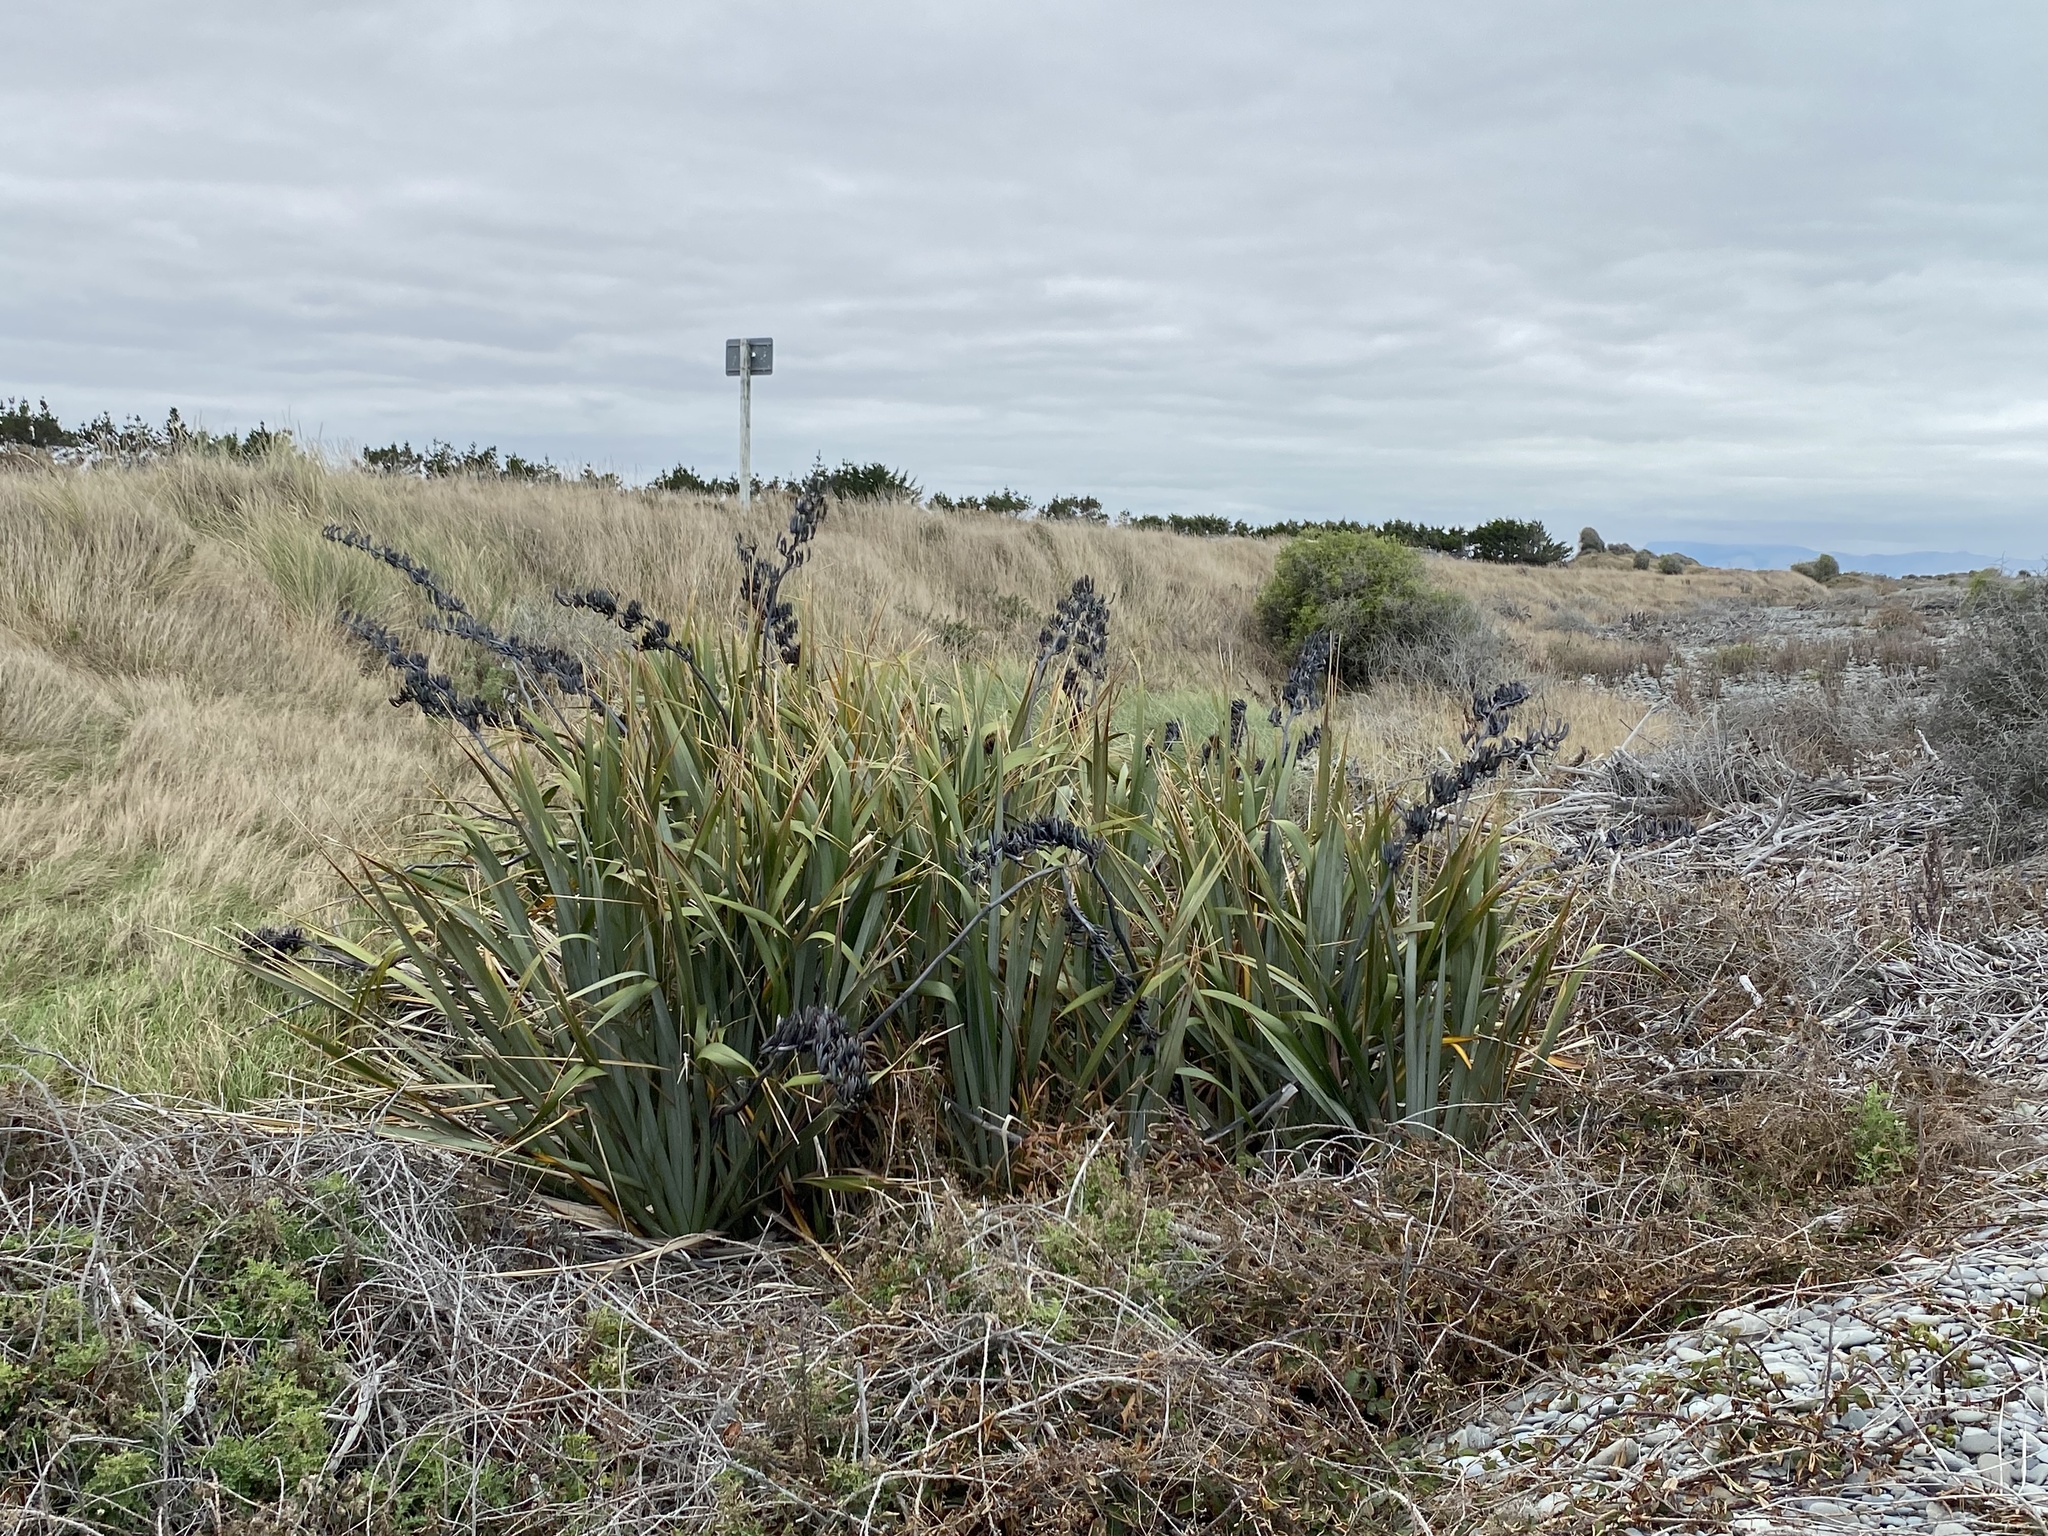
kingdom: Plantae
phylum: Tracheophyta
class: Liliopsida
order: Asparagales
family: Asphodelaceae
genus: Phormium
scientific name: Phormium tenax
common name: New zealand flax
